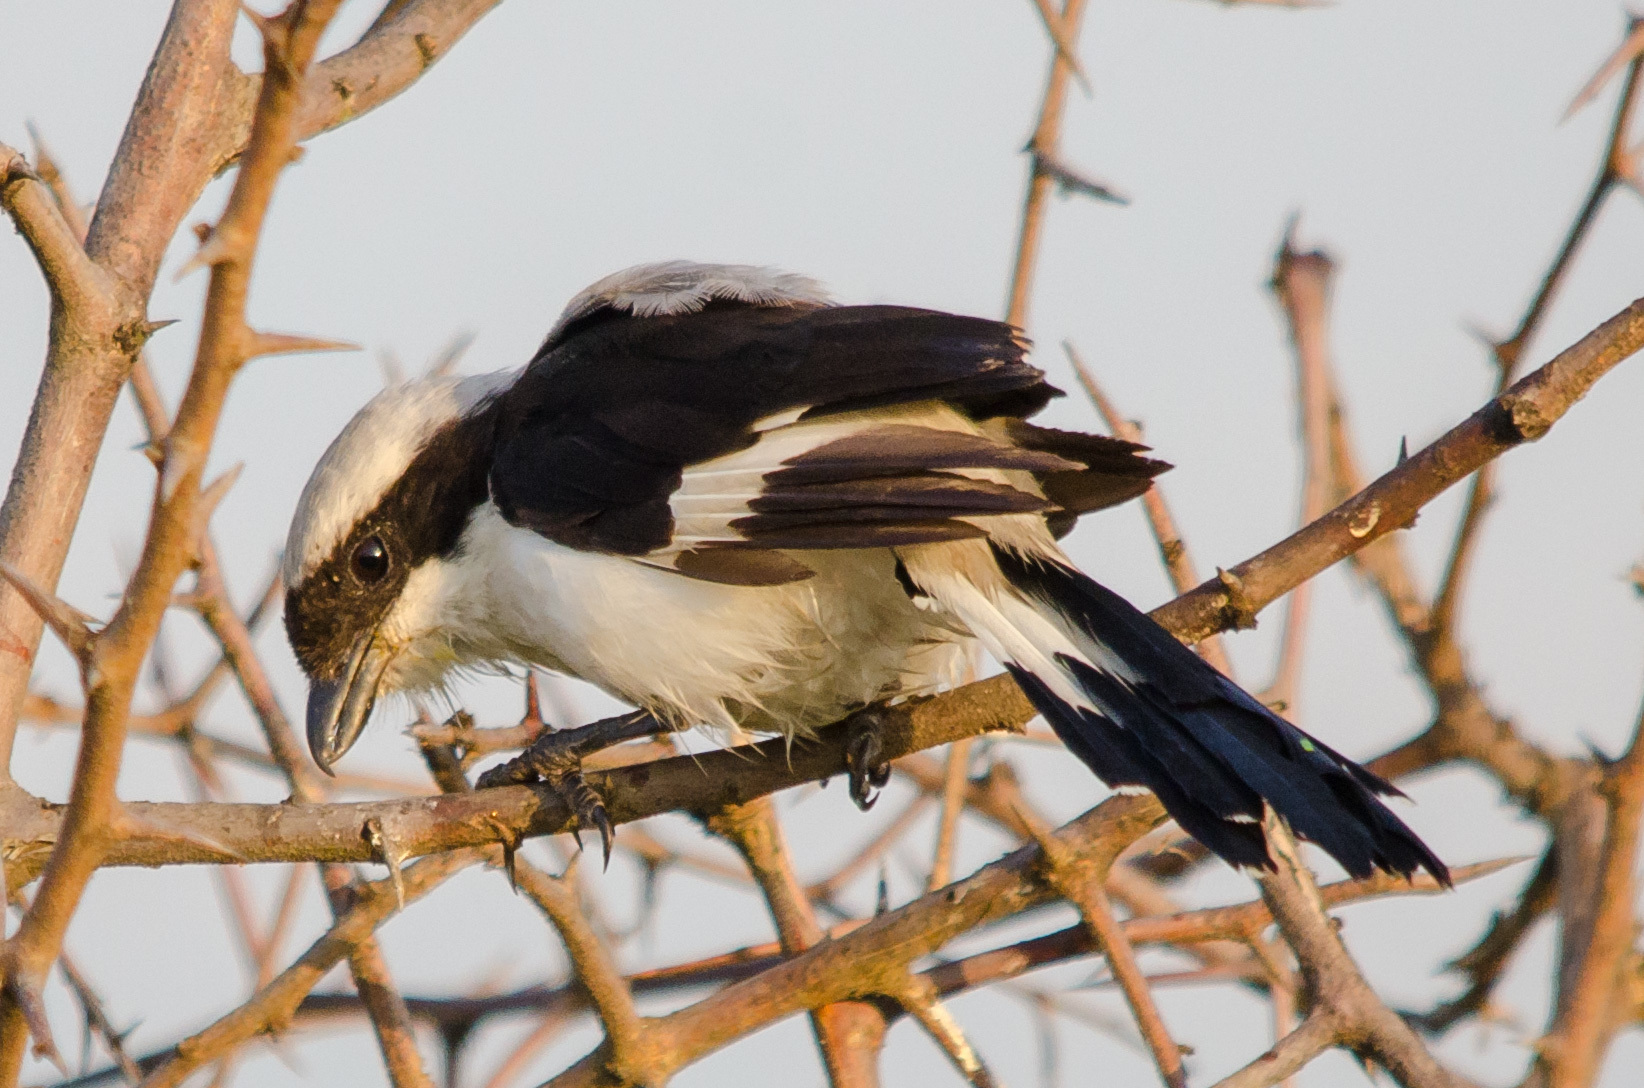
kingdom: Animalia
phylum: Chordata
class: Aves
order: Passeriformes
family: Laniidae
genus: Lanius
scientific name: Lanius excubitoroides
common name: Grey-backed fiscal
